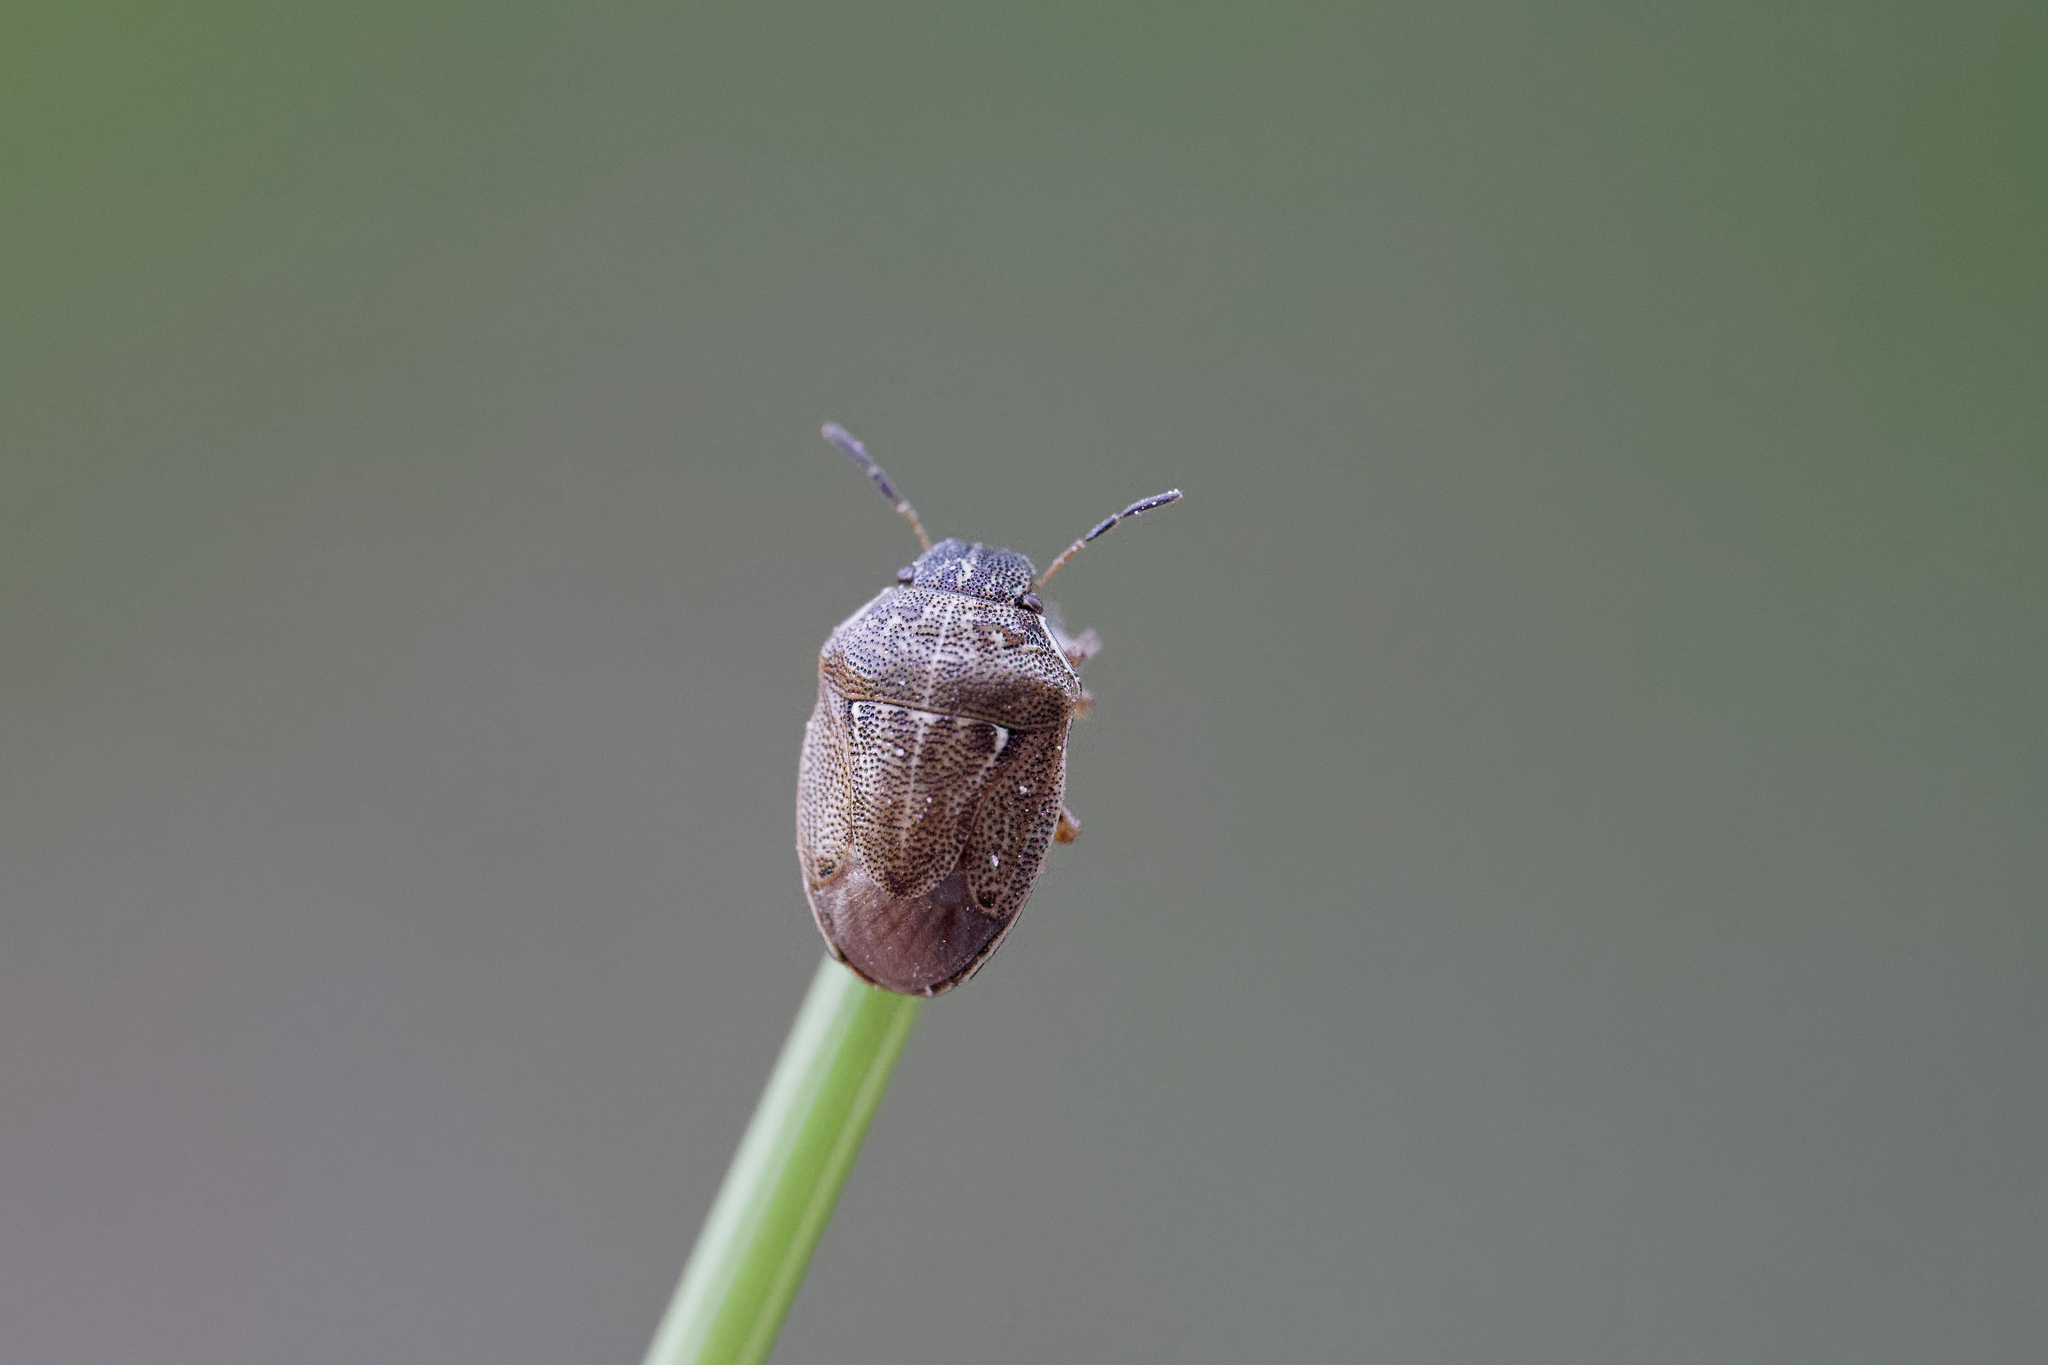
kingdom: Animalia
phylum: Arthropoda
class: Insecta
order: Hemiptera
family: Pentatomidae
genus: Neottiglossa
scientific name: Neottiglossa pusilla
